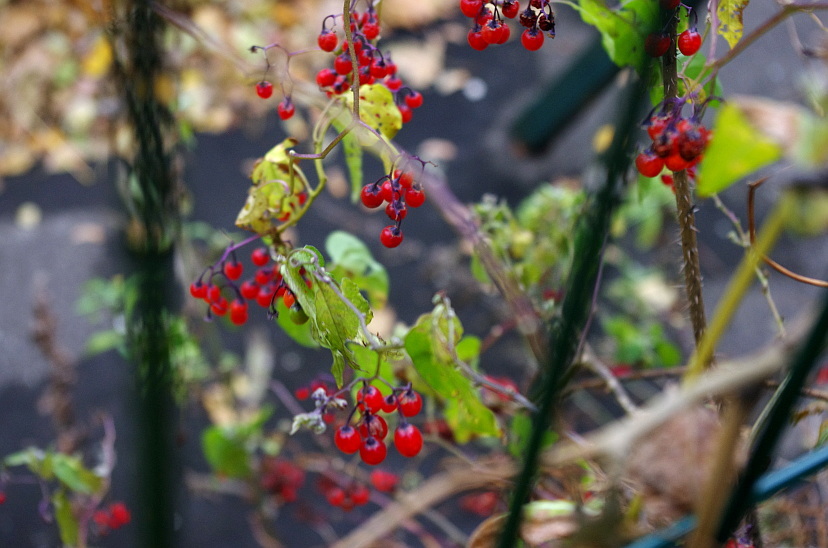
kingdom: Plantae
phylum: Tracheophyta
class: Magnoliopsida
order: Solanales
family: Solanaceae
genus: Solanum
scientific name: Solanum dulcamara
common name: Climbing nightshade
